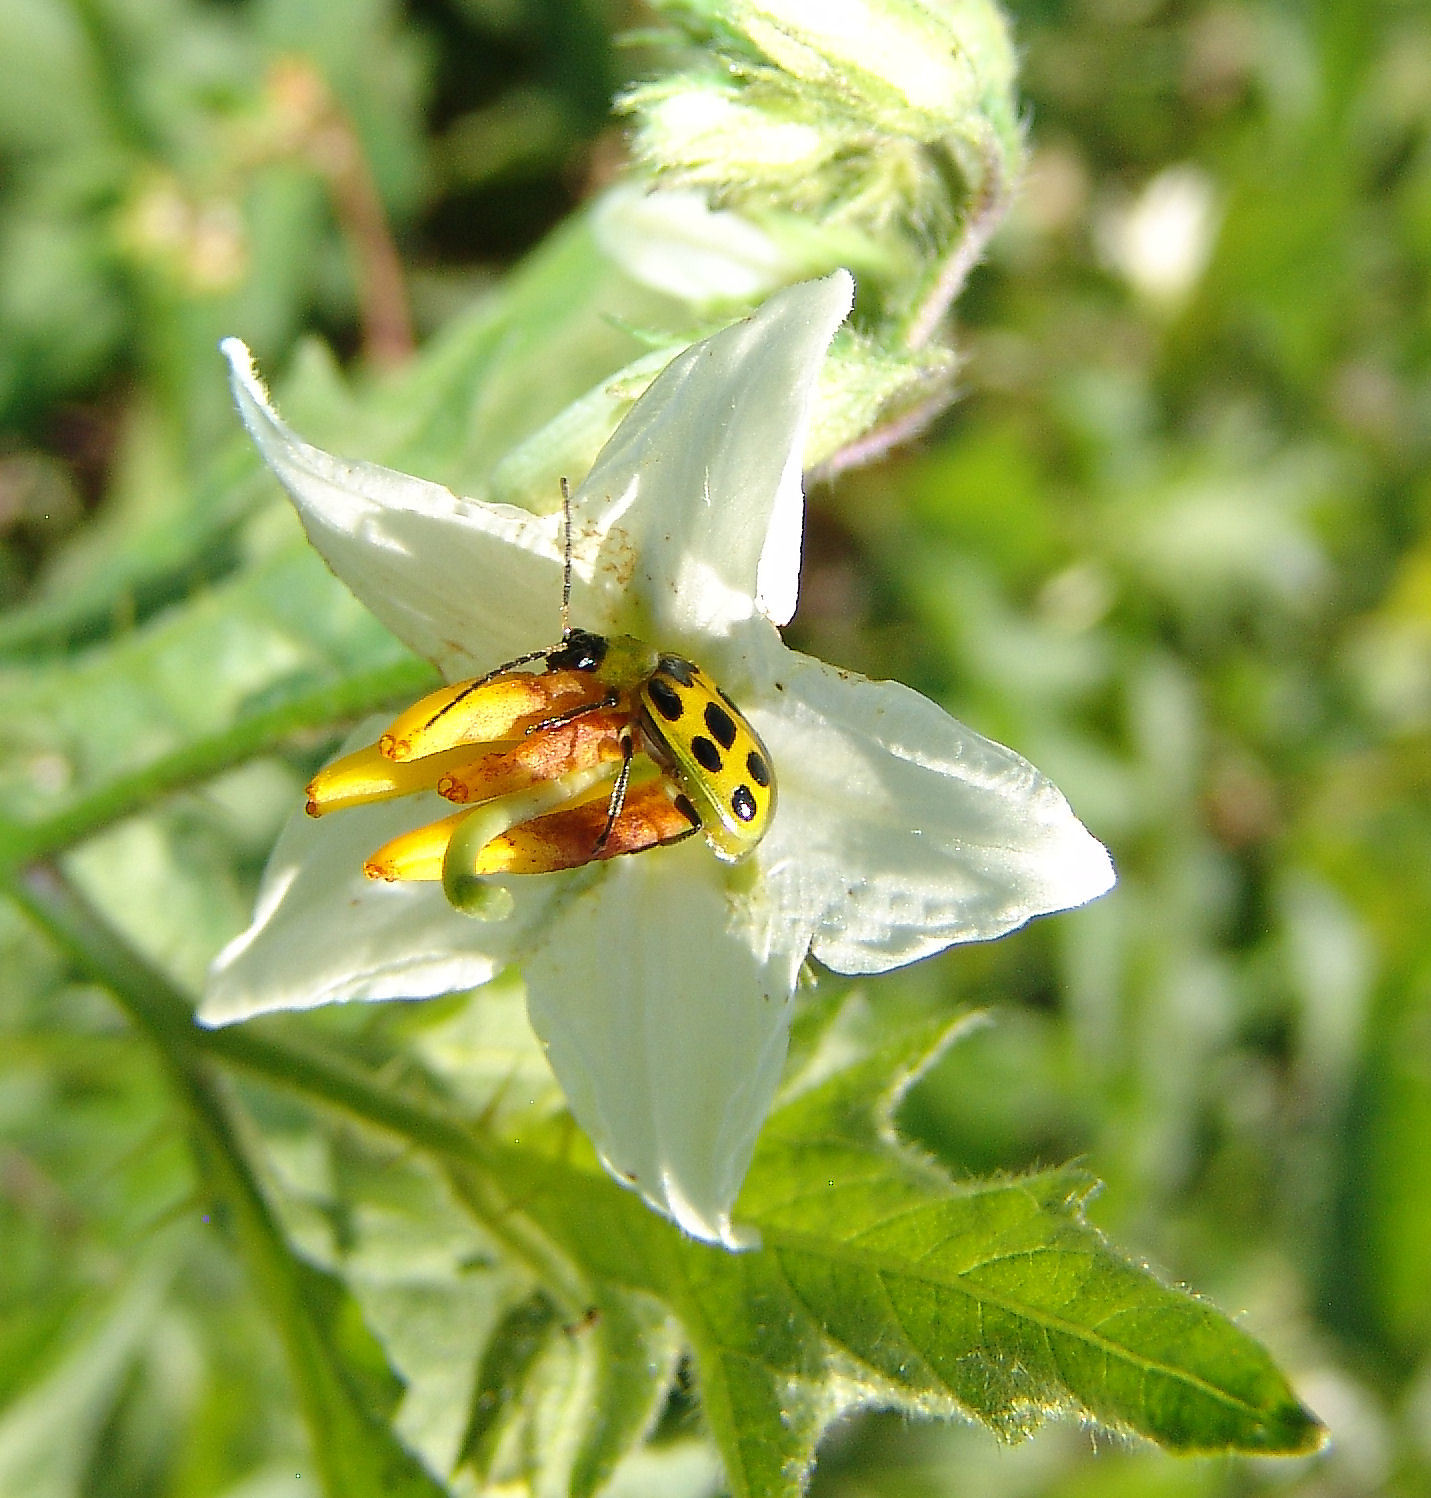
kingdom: Animalia
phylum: Arthropoda
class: Insecta
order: Coleoptera
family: Chrysomelidae
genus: Diabrotica
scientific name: Diabrotica undecimpunctata
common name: Spotted cucumber beetle
